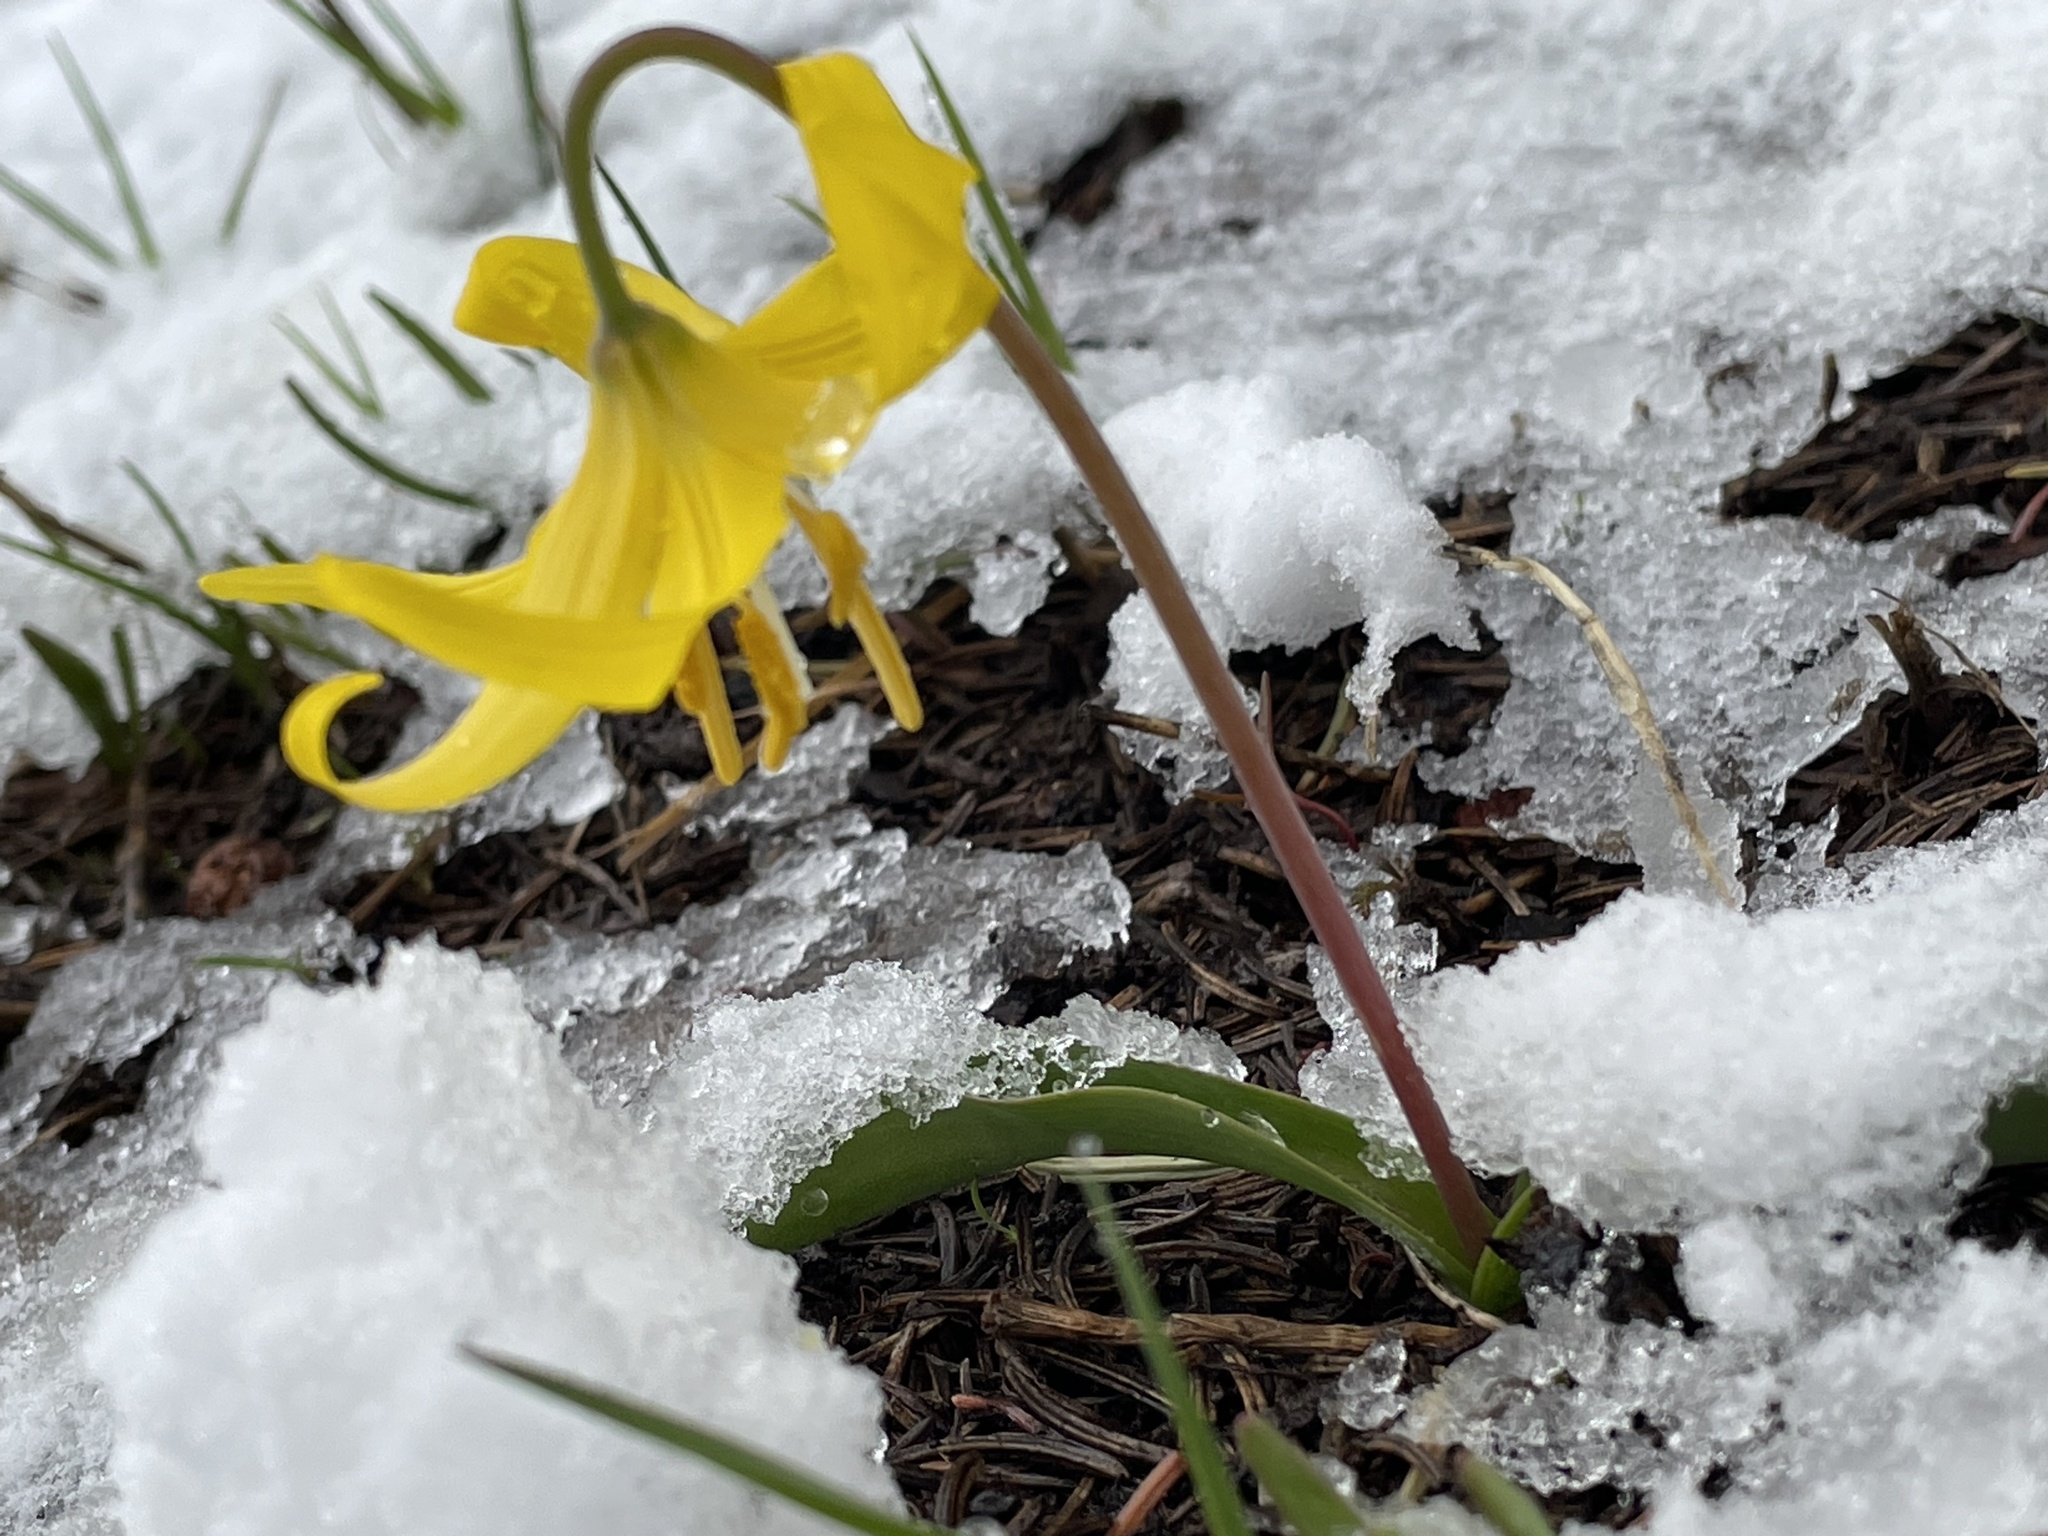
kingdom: Plantae
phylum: Tracheophyta
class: Liliopsida
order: Liliales
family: Liliaceae
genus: Erythronium
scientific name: Erythronium grandiflorum
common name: Avalanche-lily
